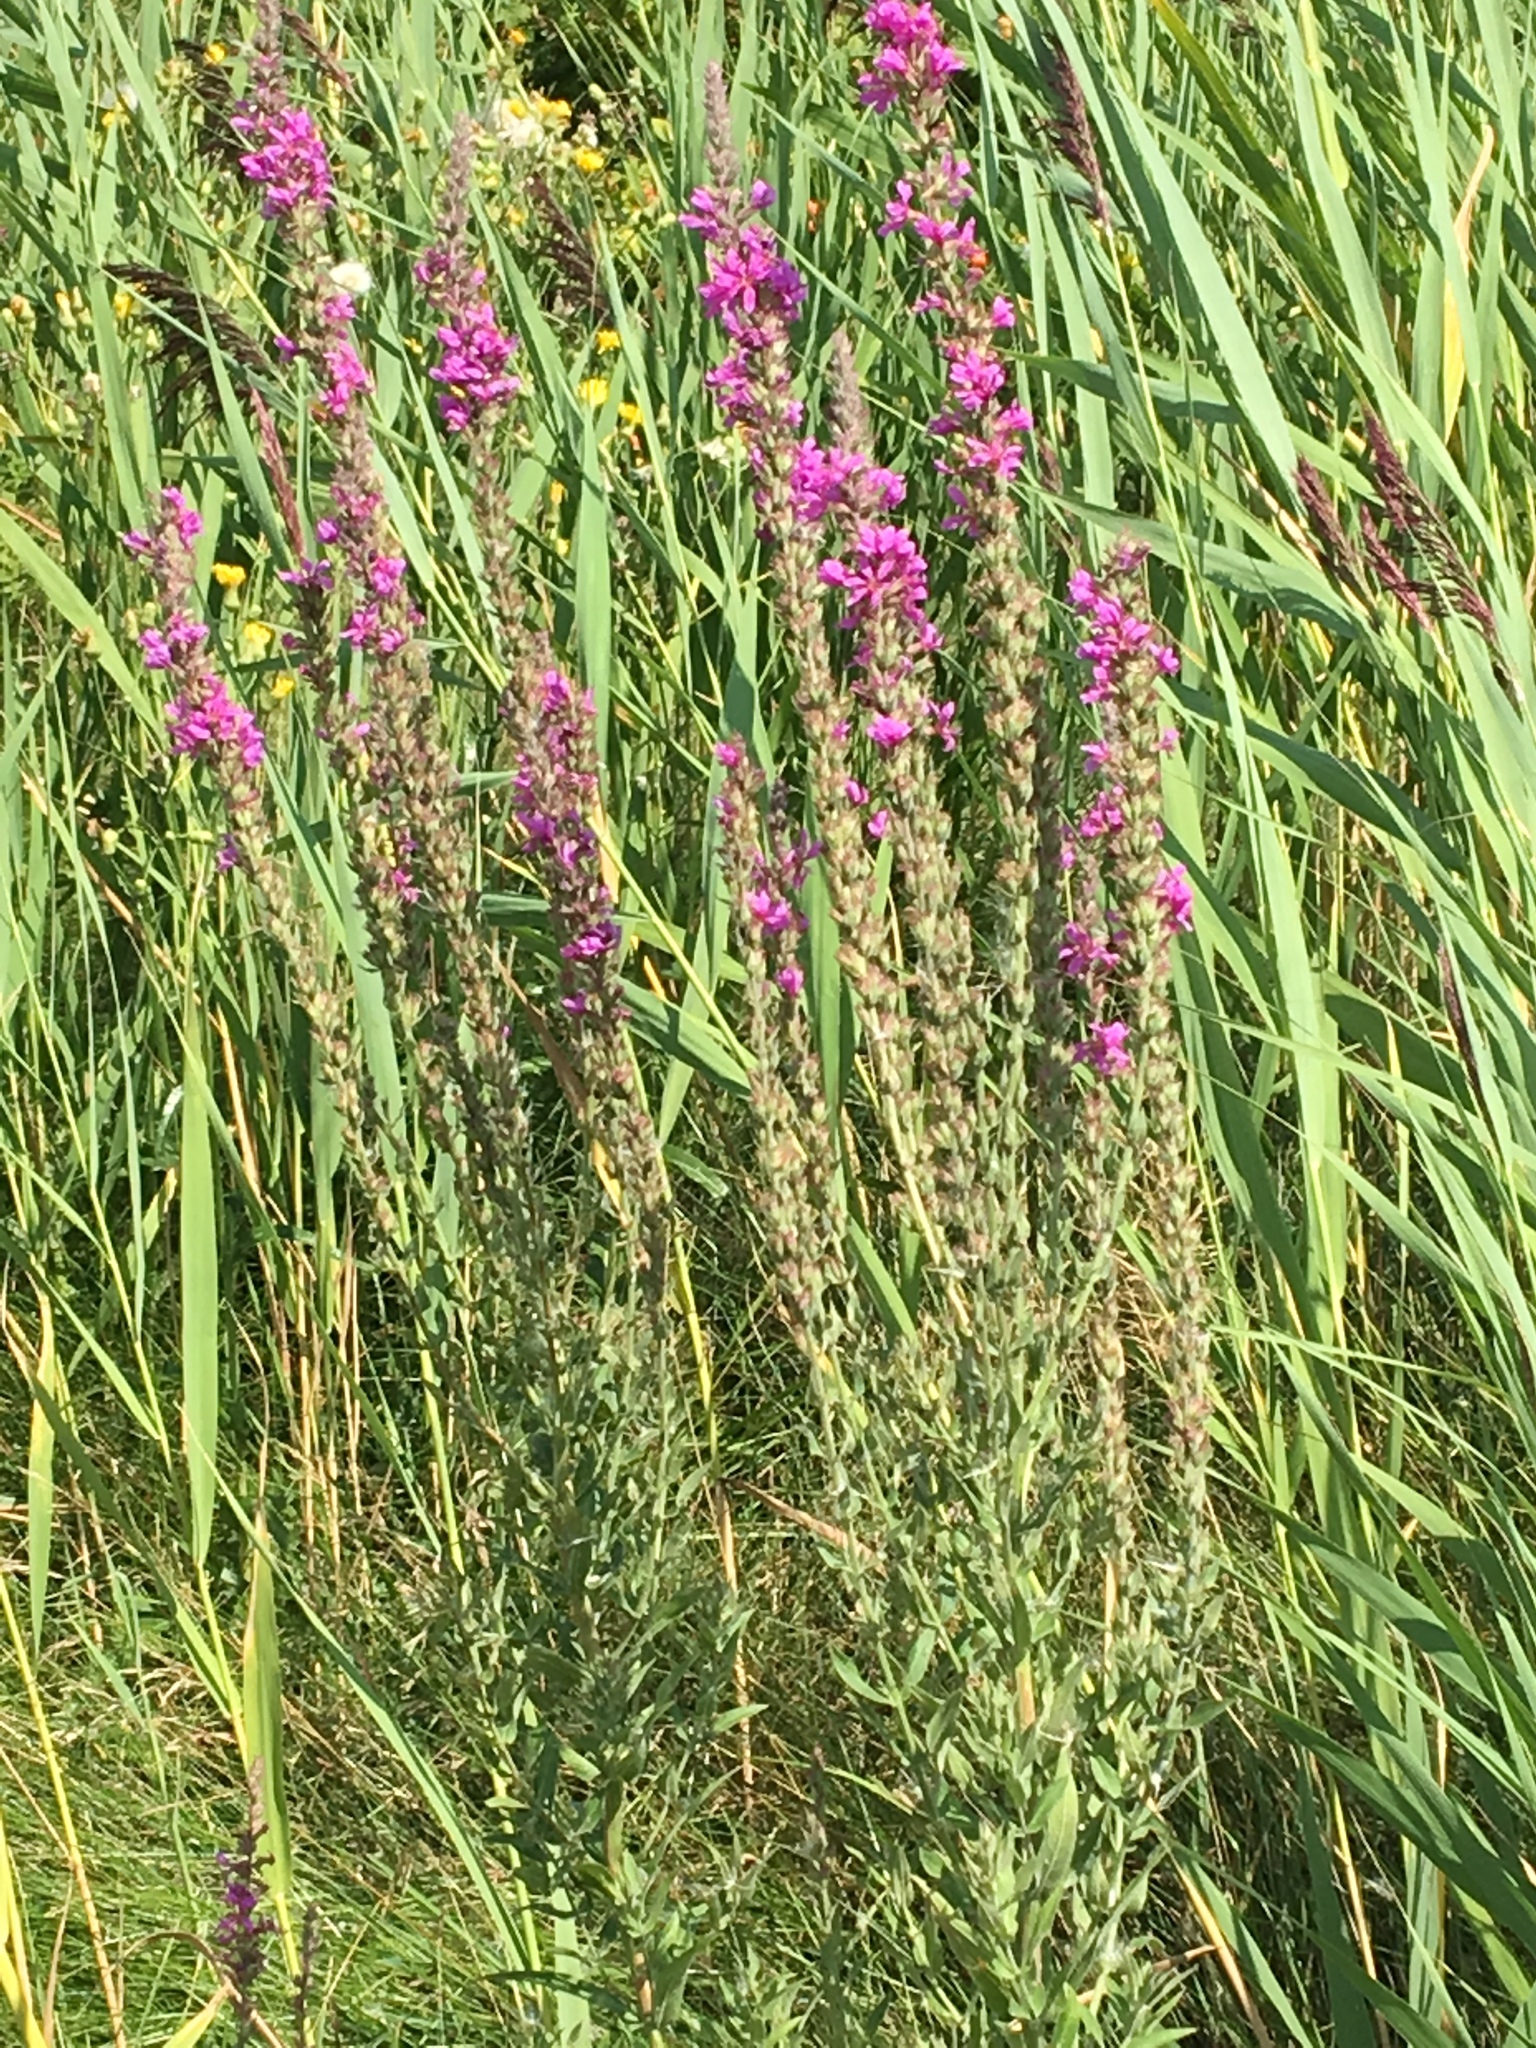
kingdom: Plantae
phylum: Tracheophyta
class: Magnoliopsida
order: Myrtales
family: Lythraceae
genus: Lythrum
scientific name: Lythrum salicaria
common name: Purple loosestrife
